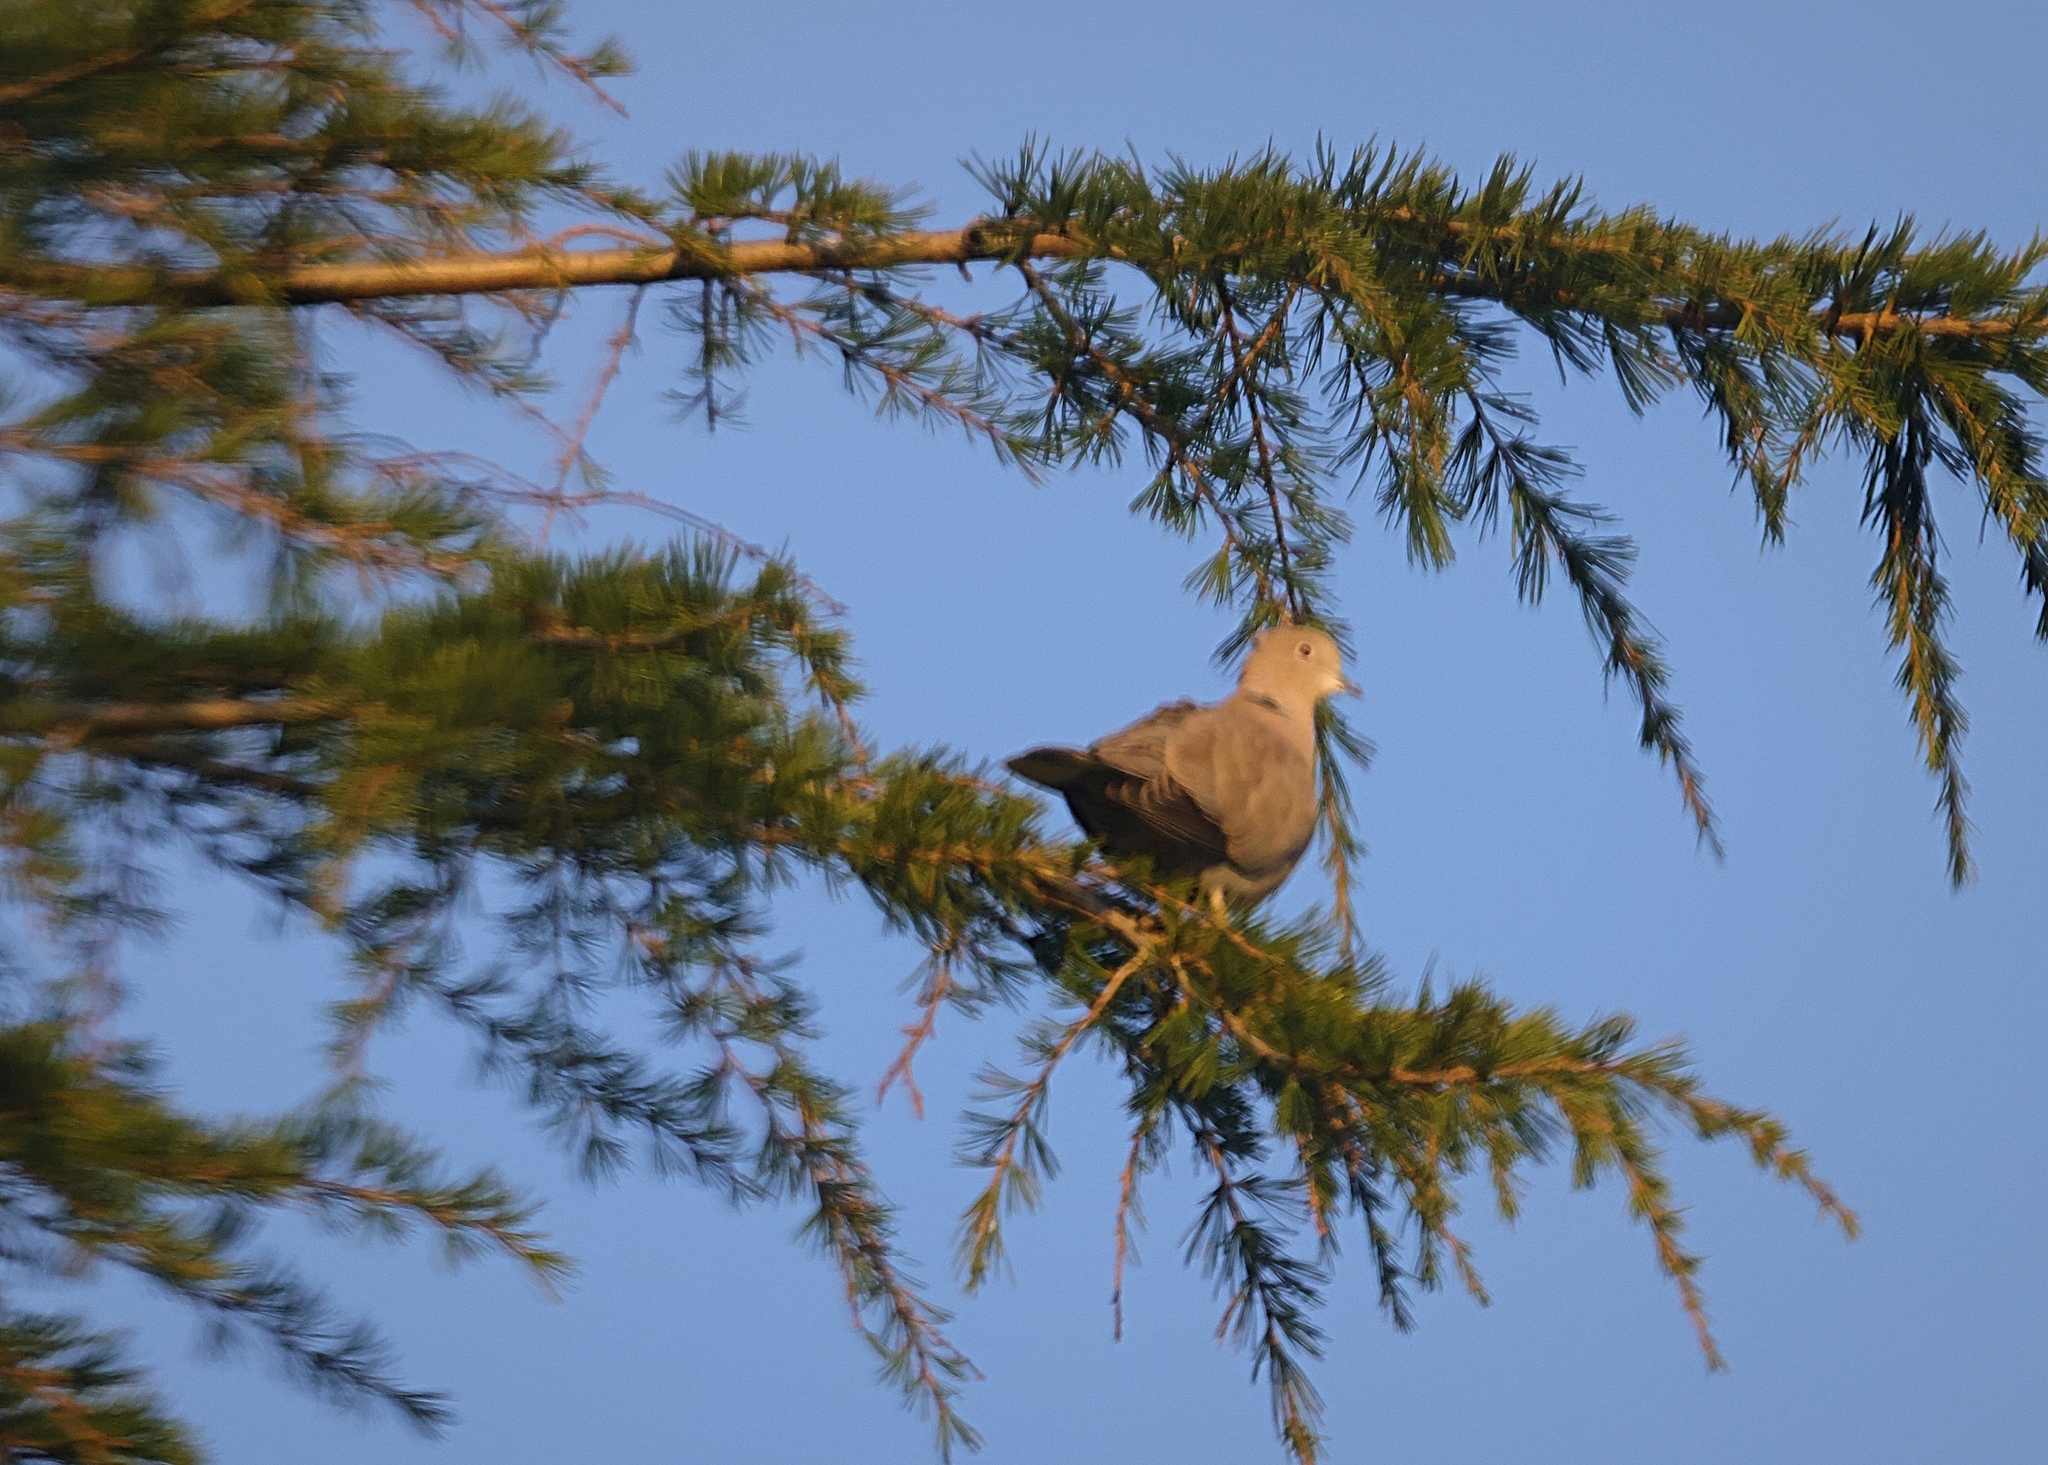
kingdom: Animalia
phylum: Chordata
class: Aves
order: Columbiformes
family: Columbidae
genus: Streptopelia
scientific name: Streptopelia decaocto
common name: Eurasian collared dove
